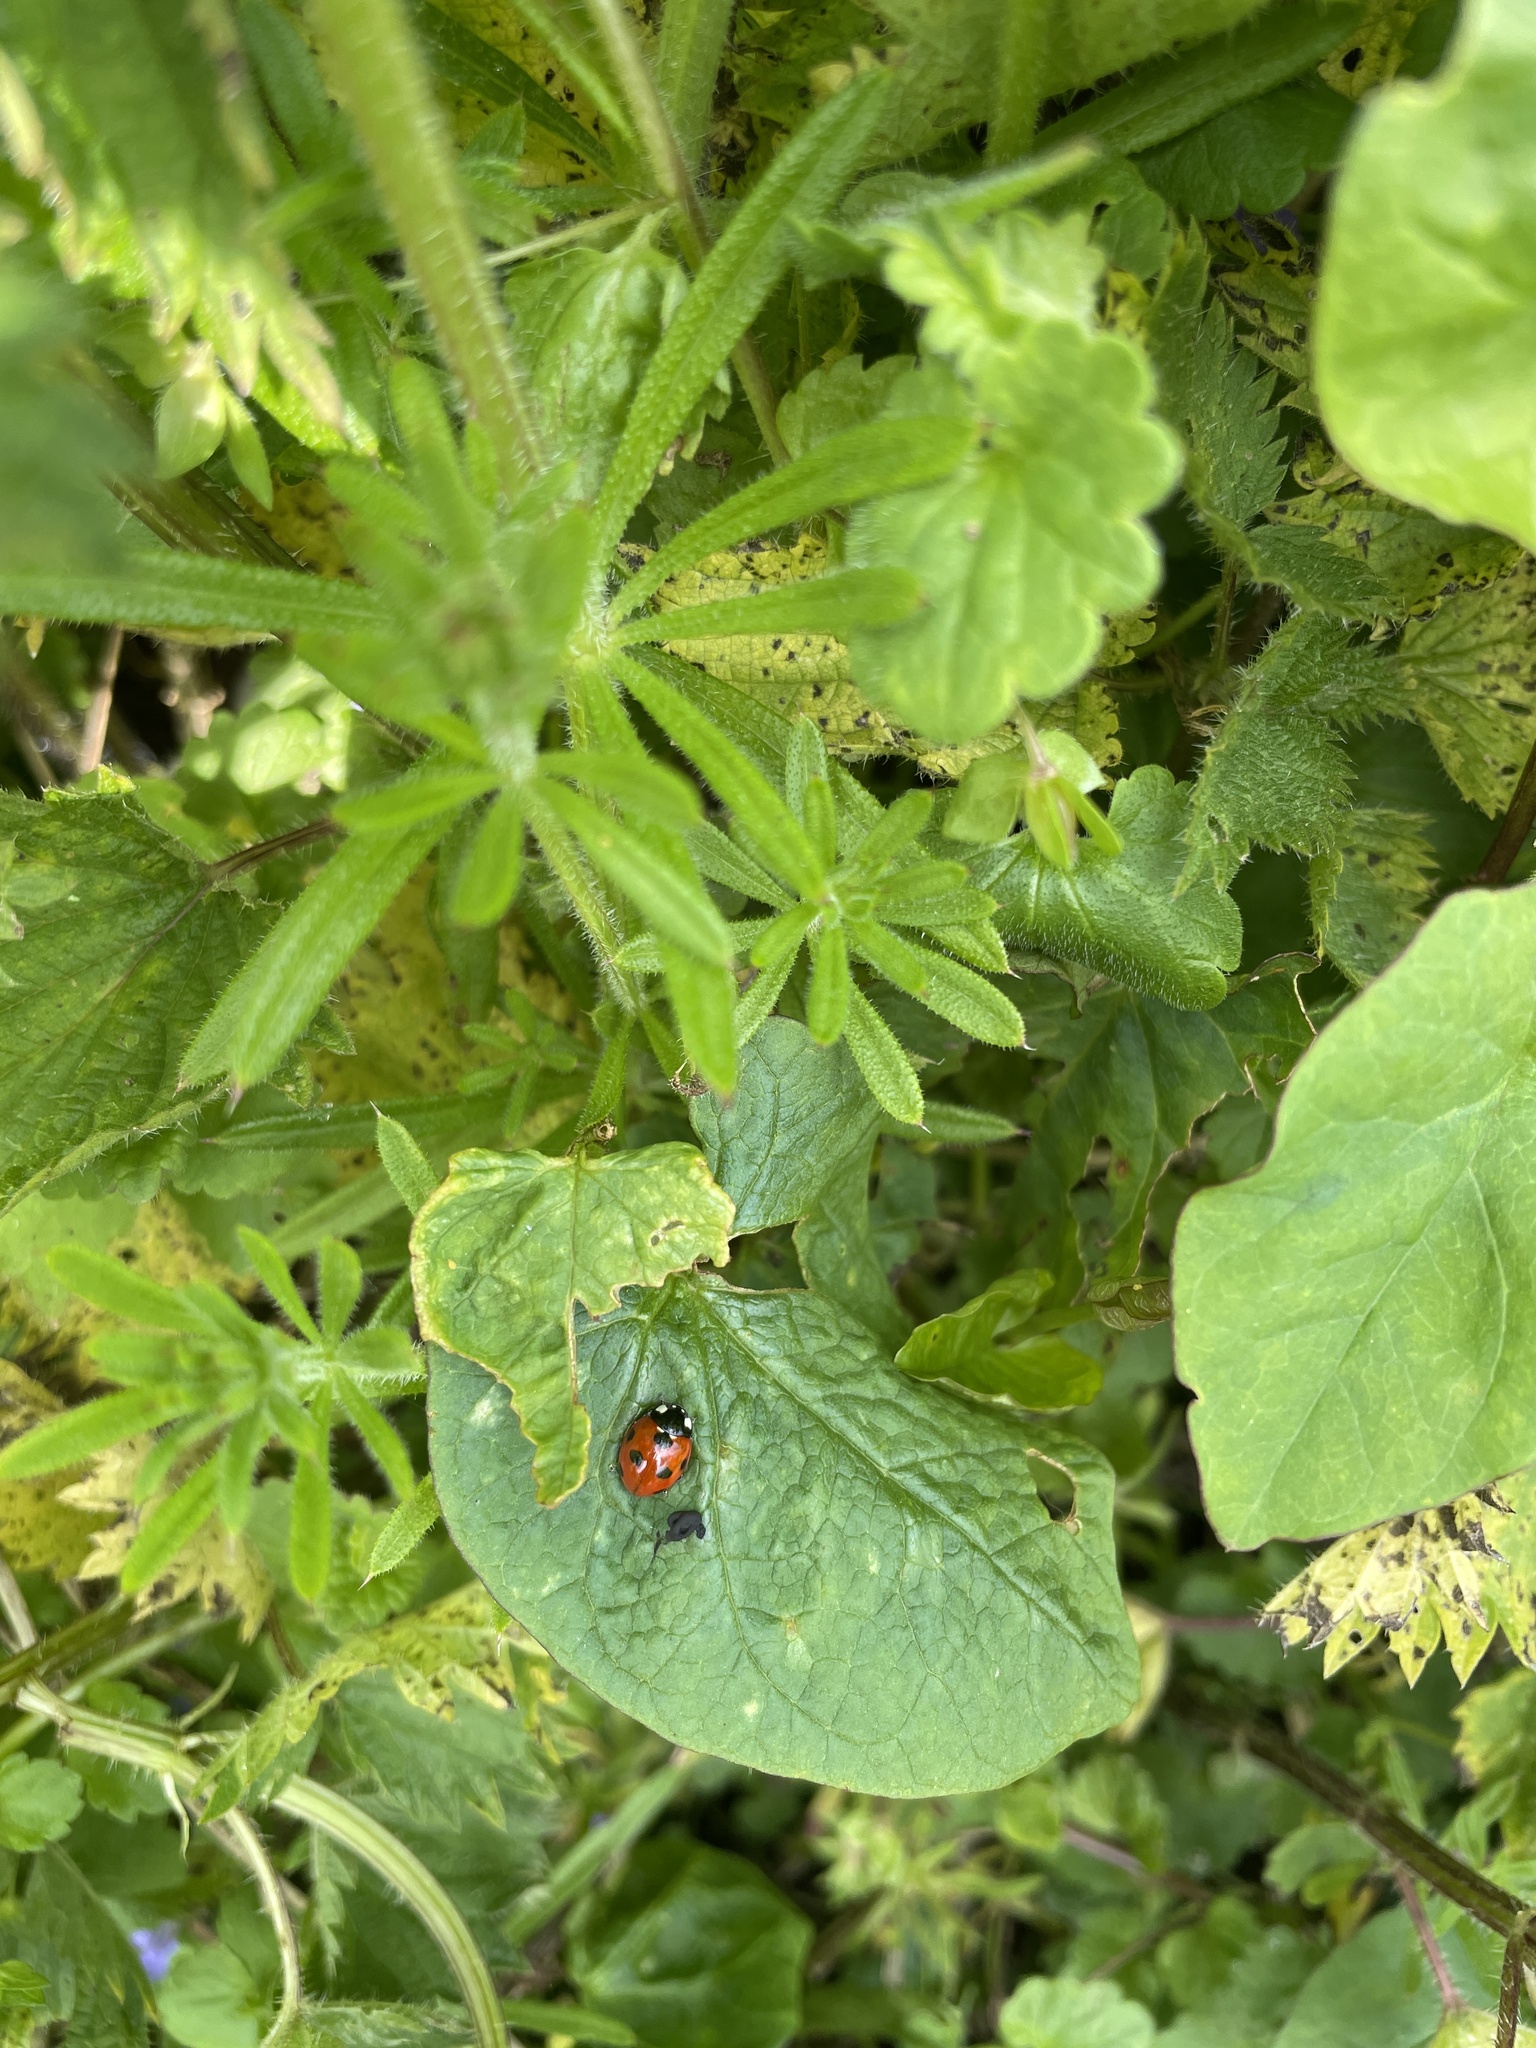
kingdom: Animalia
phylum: Arthropoda
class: Insecta
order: Coleoptera
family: Coccinellidae
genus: Coccinella
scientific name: Coccinella septempunctata
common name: Sevenspotted lady beetle
